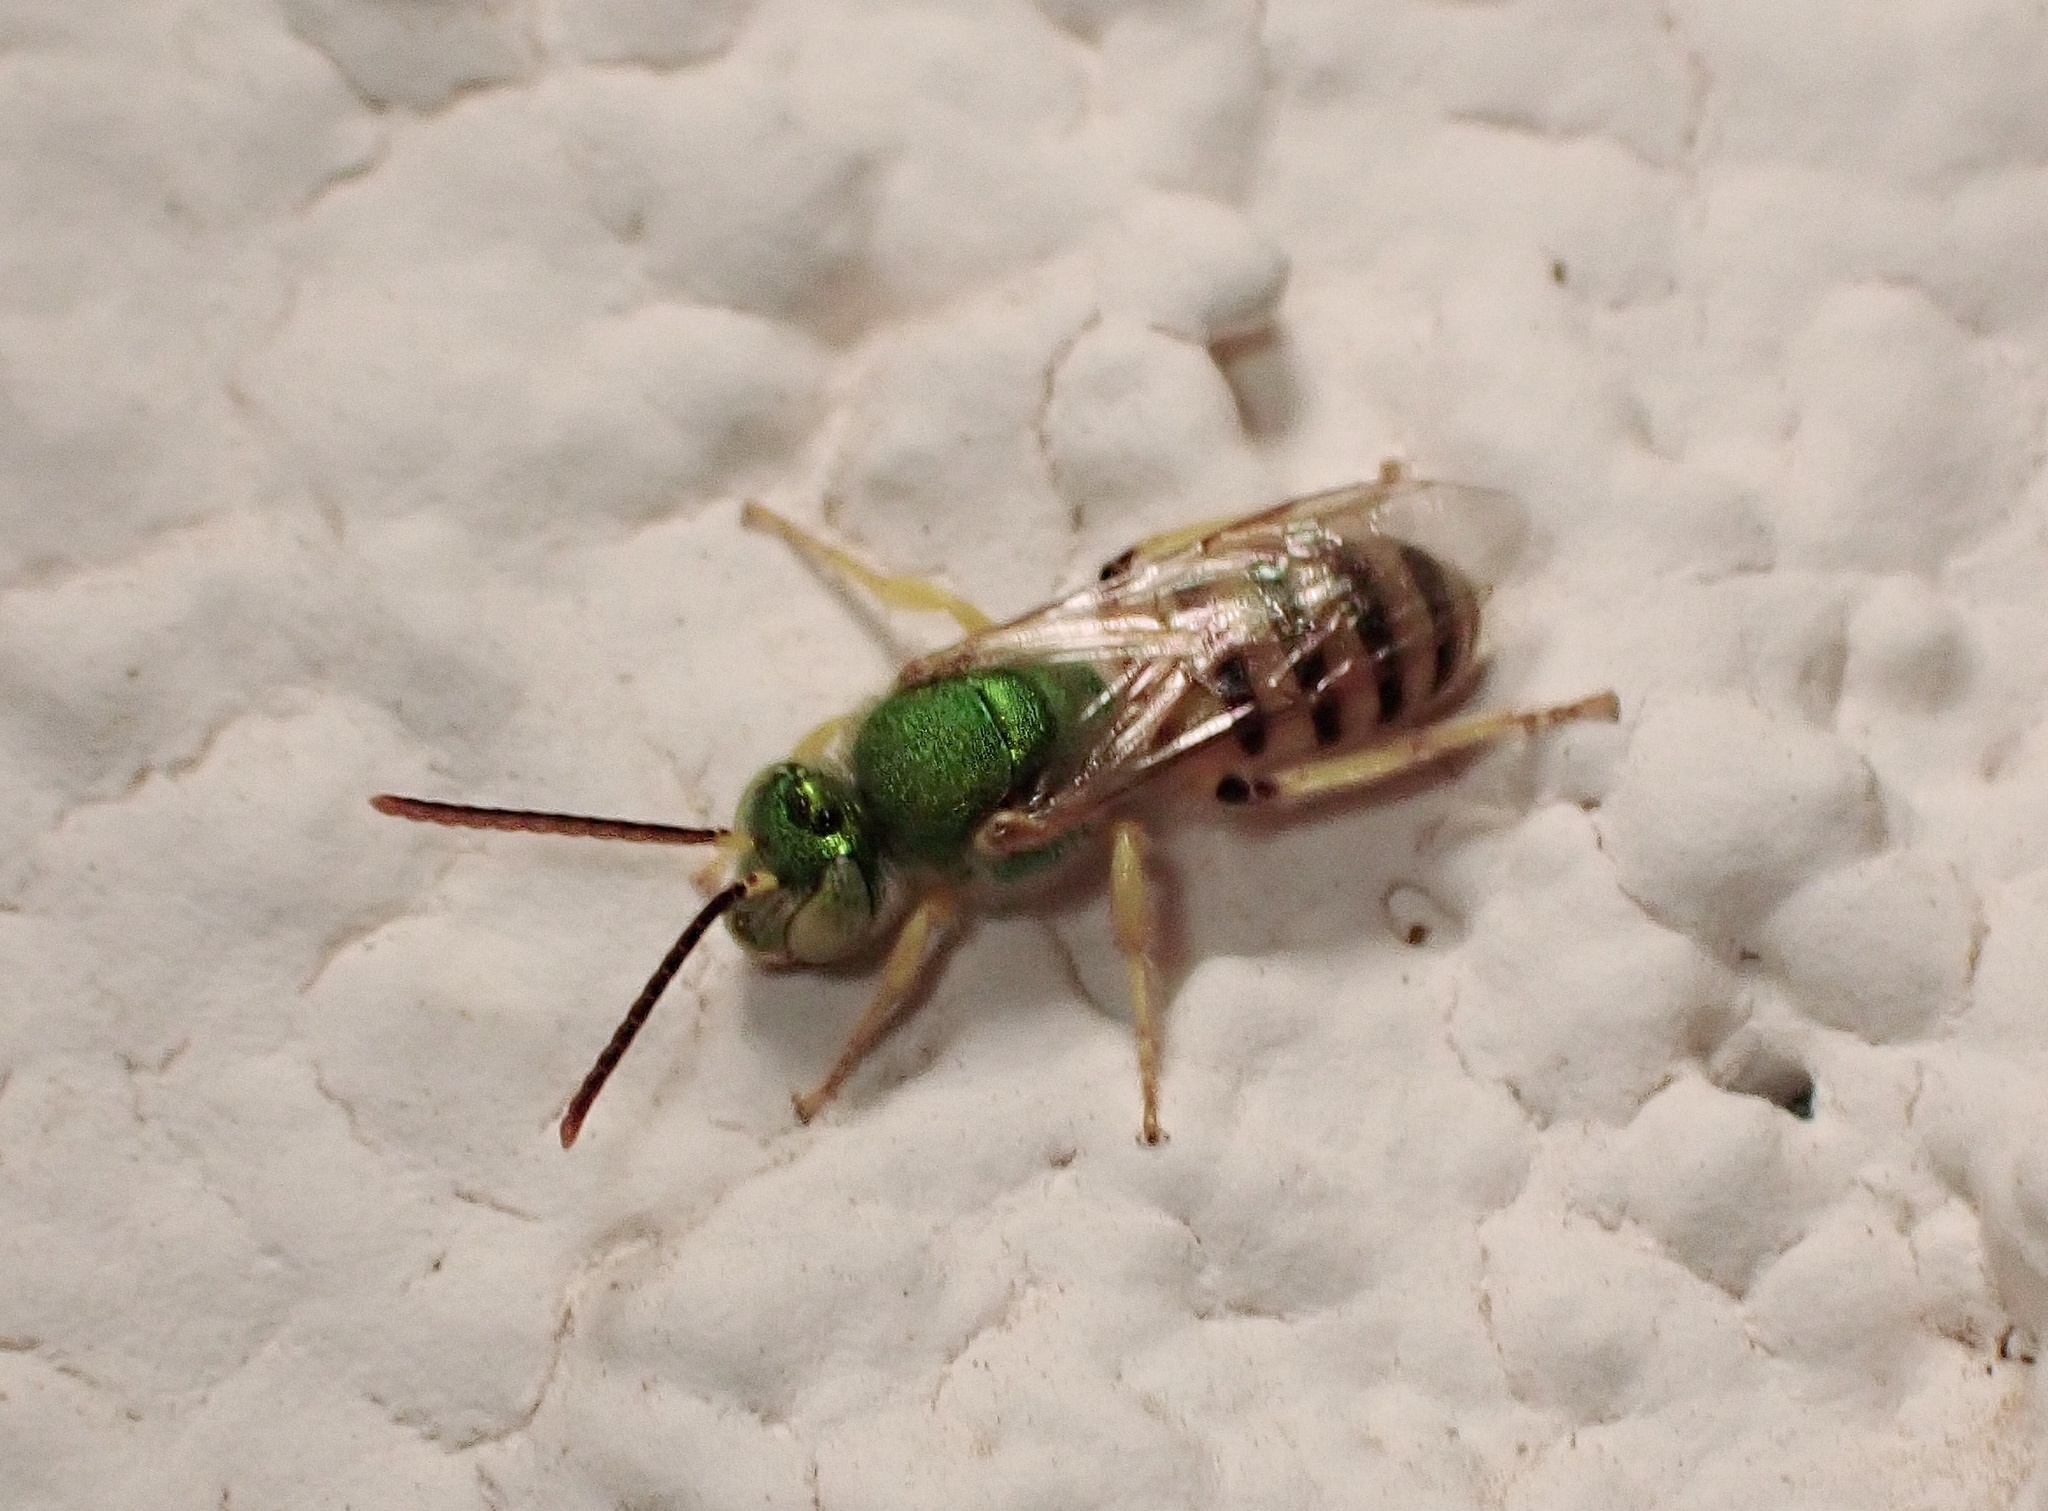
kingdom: Animalia
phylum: Arthropoda
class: Insecta
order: Hymenoptera
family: Halictidae
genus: Agapostemon
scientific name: Agapostemon melliventris
